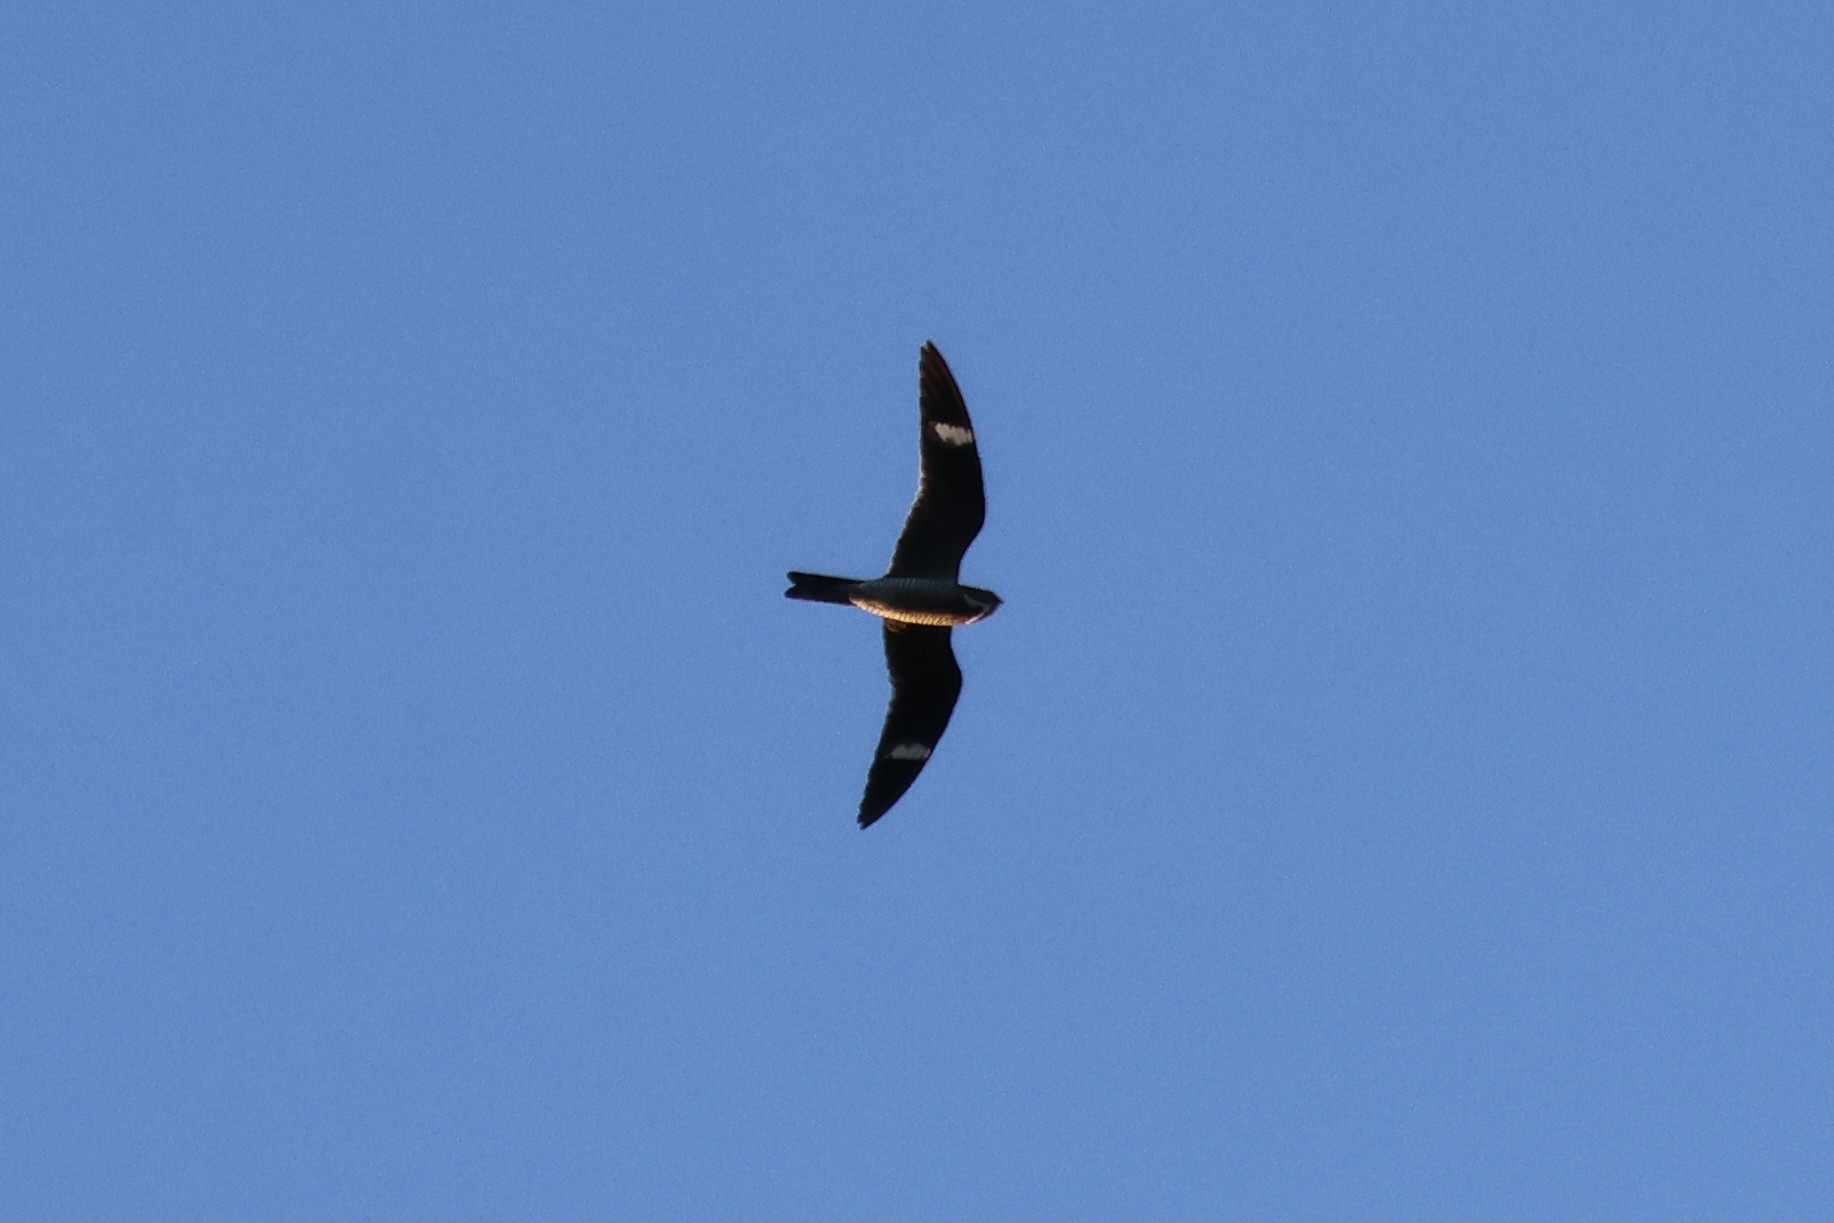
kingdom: Animalia
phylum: Chordata
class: Aves
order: Caprimulgiformes
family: Caprimulgidae
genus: Chordeiles
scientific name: Chordeiles minor
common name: Common nighthawk
